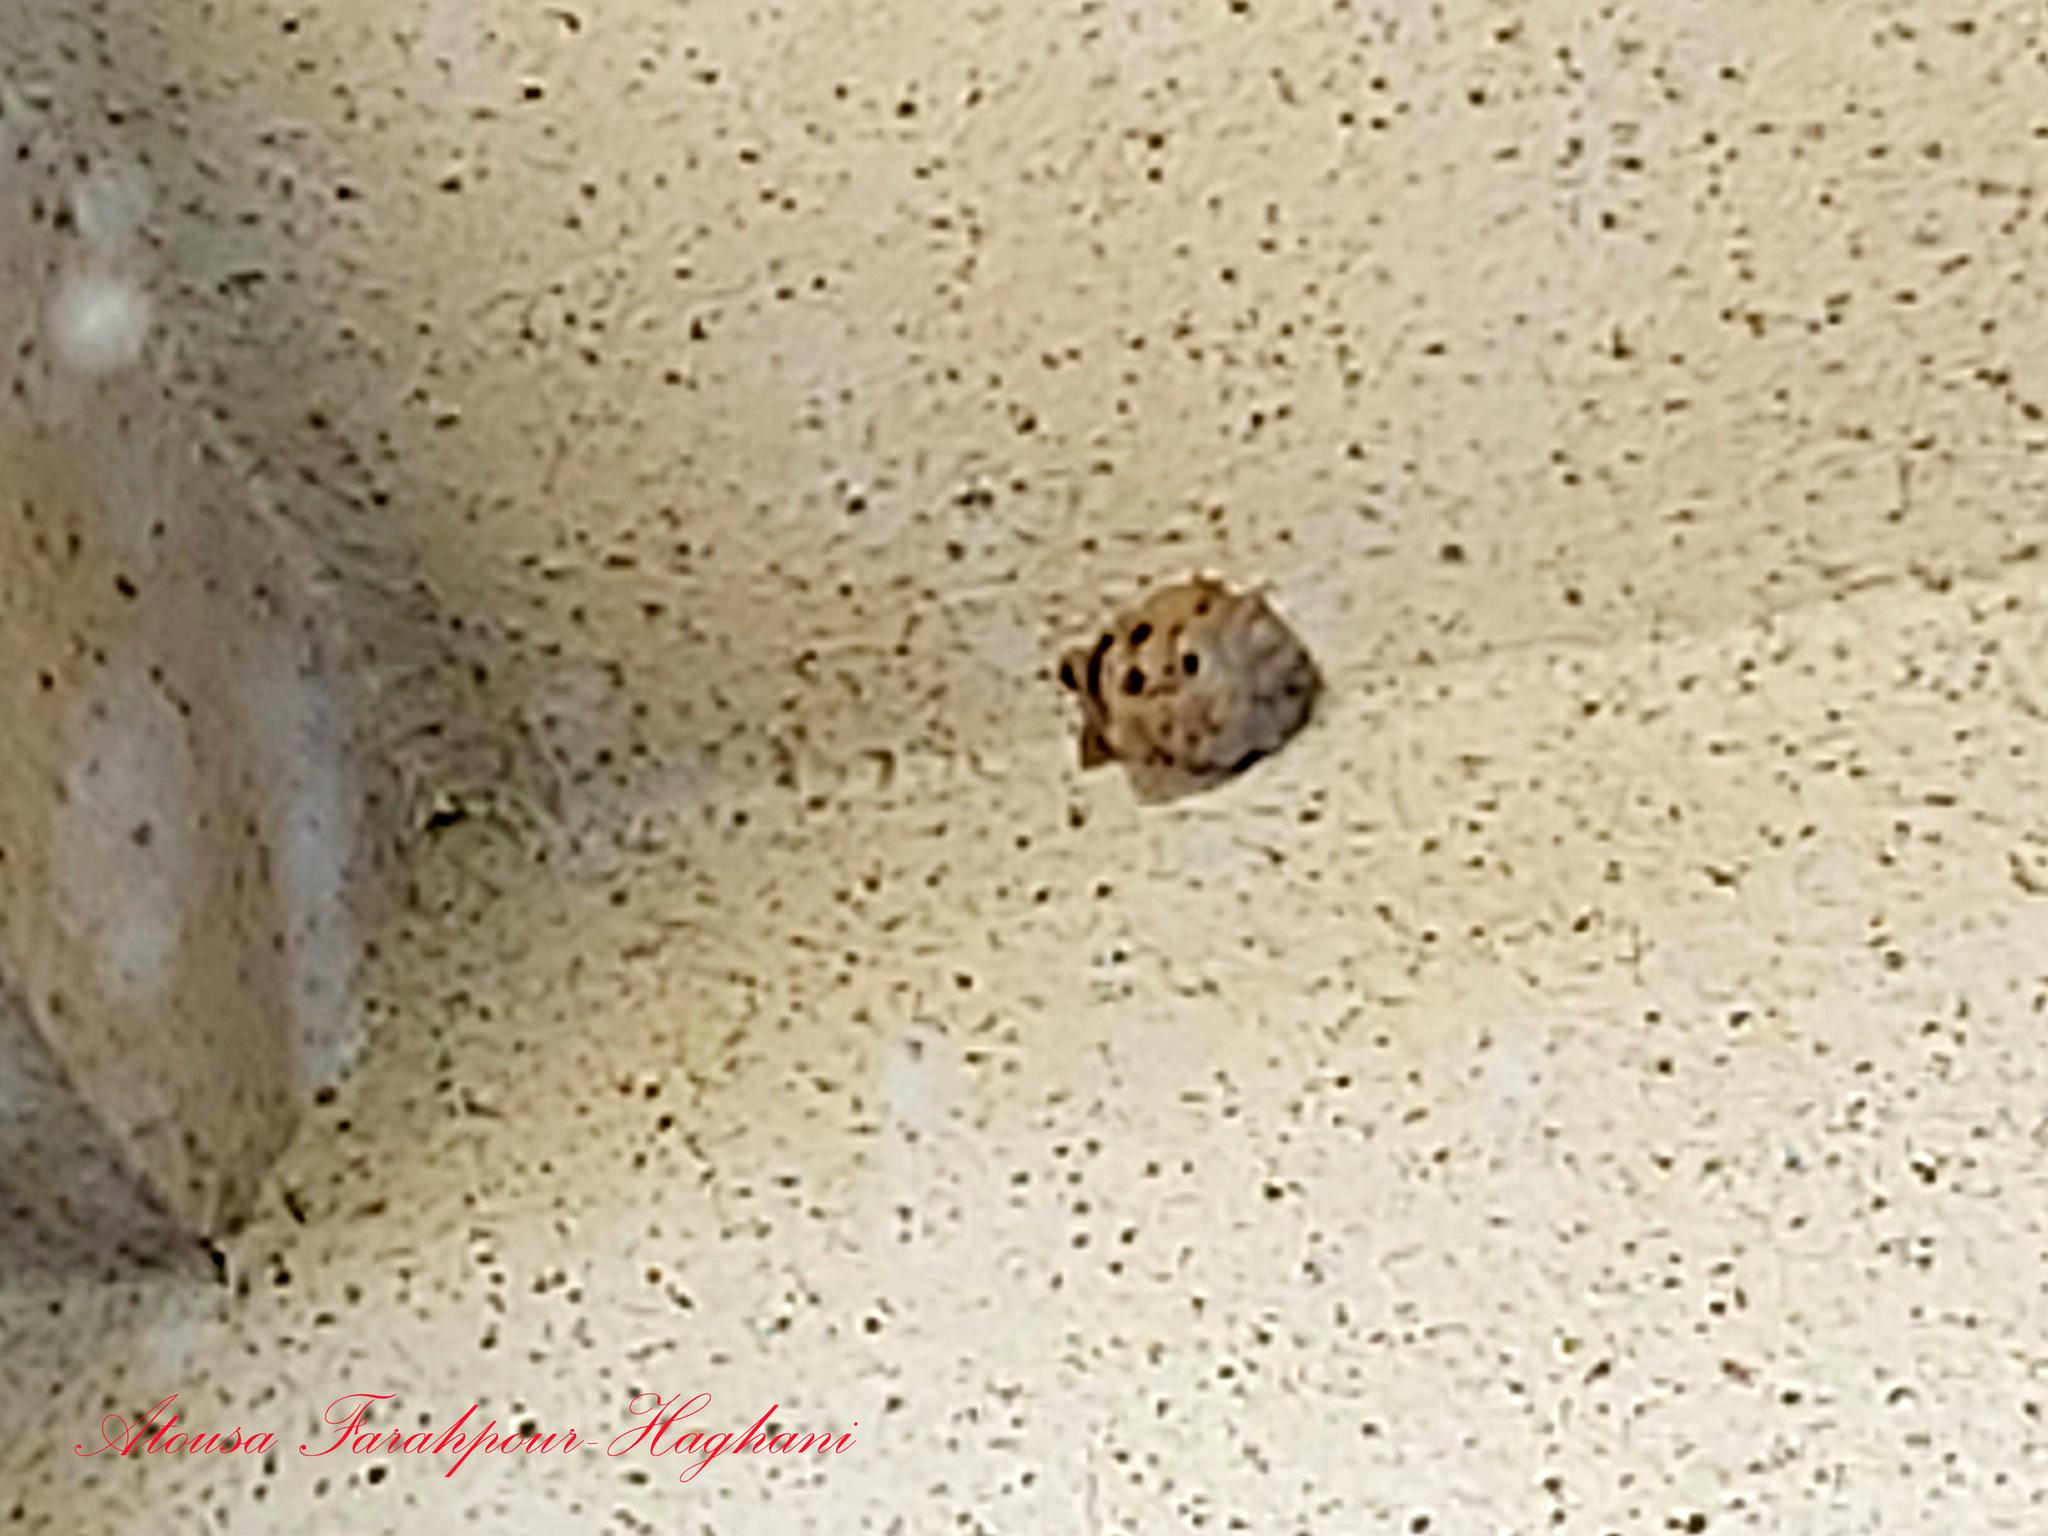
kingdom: Animalia
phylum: Arthropoda
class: Insecta
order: Hymenoptera
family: Sphecidae
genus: Sceliphron
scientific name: Sceliphron madraspatanum
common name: Mud dauber
